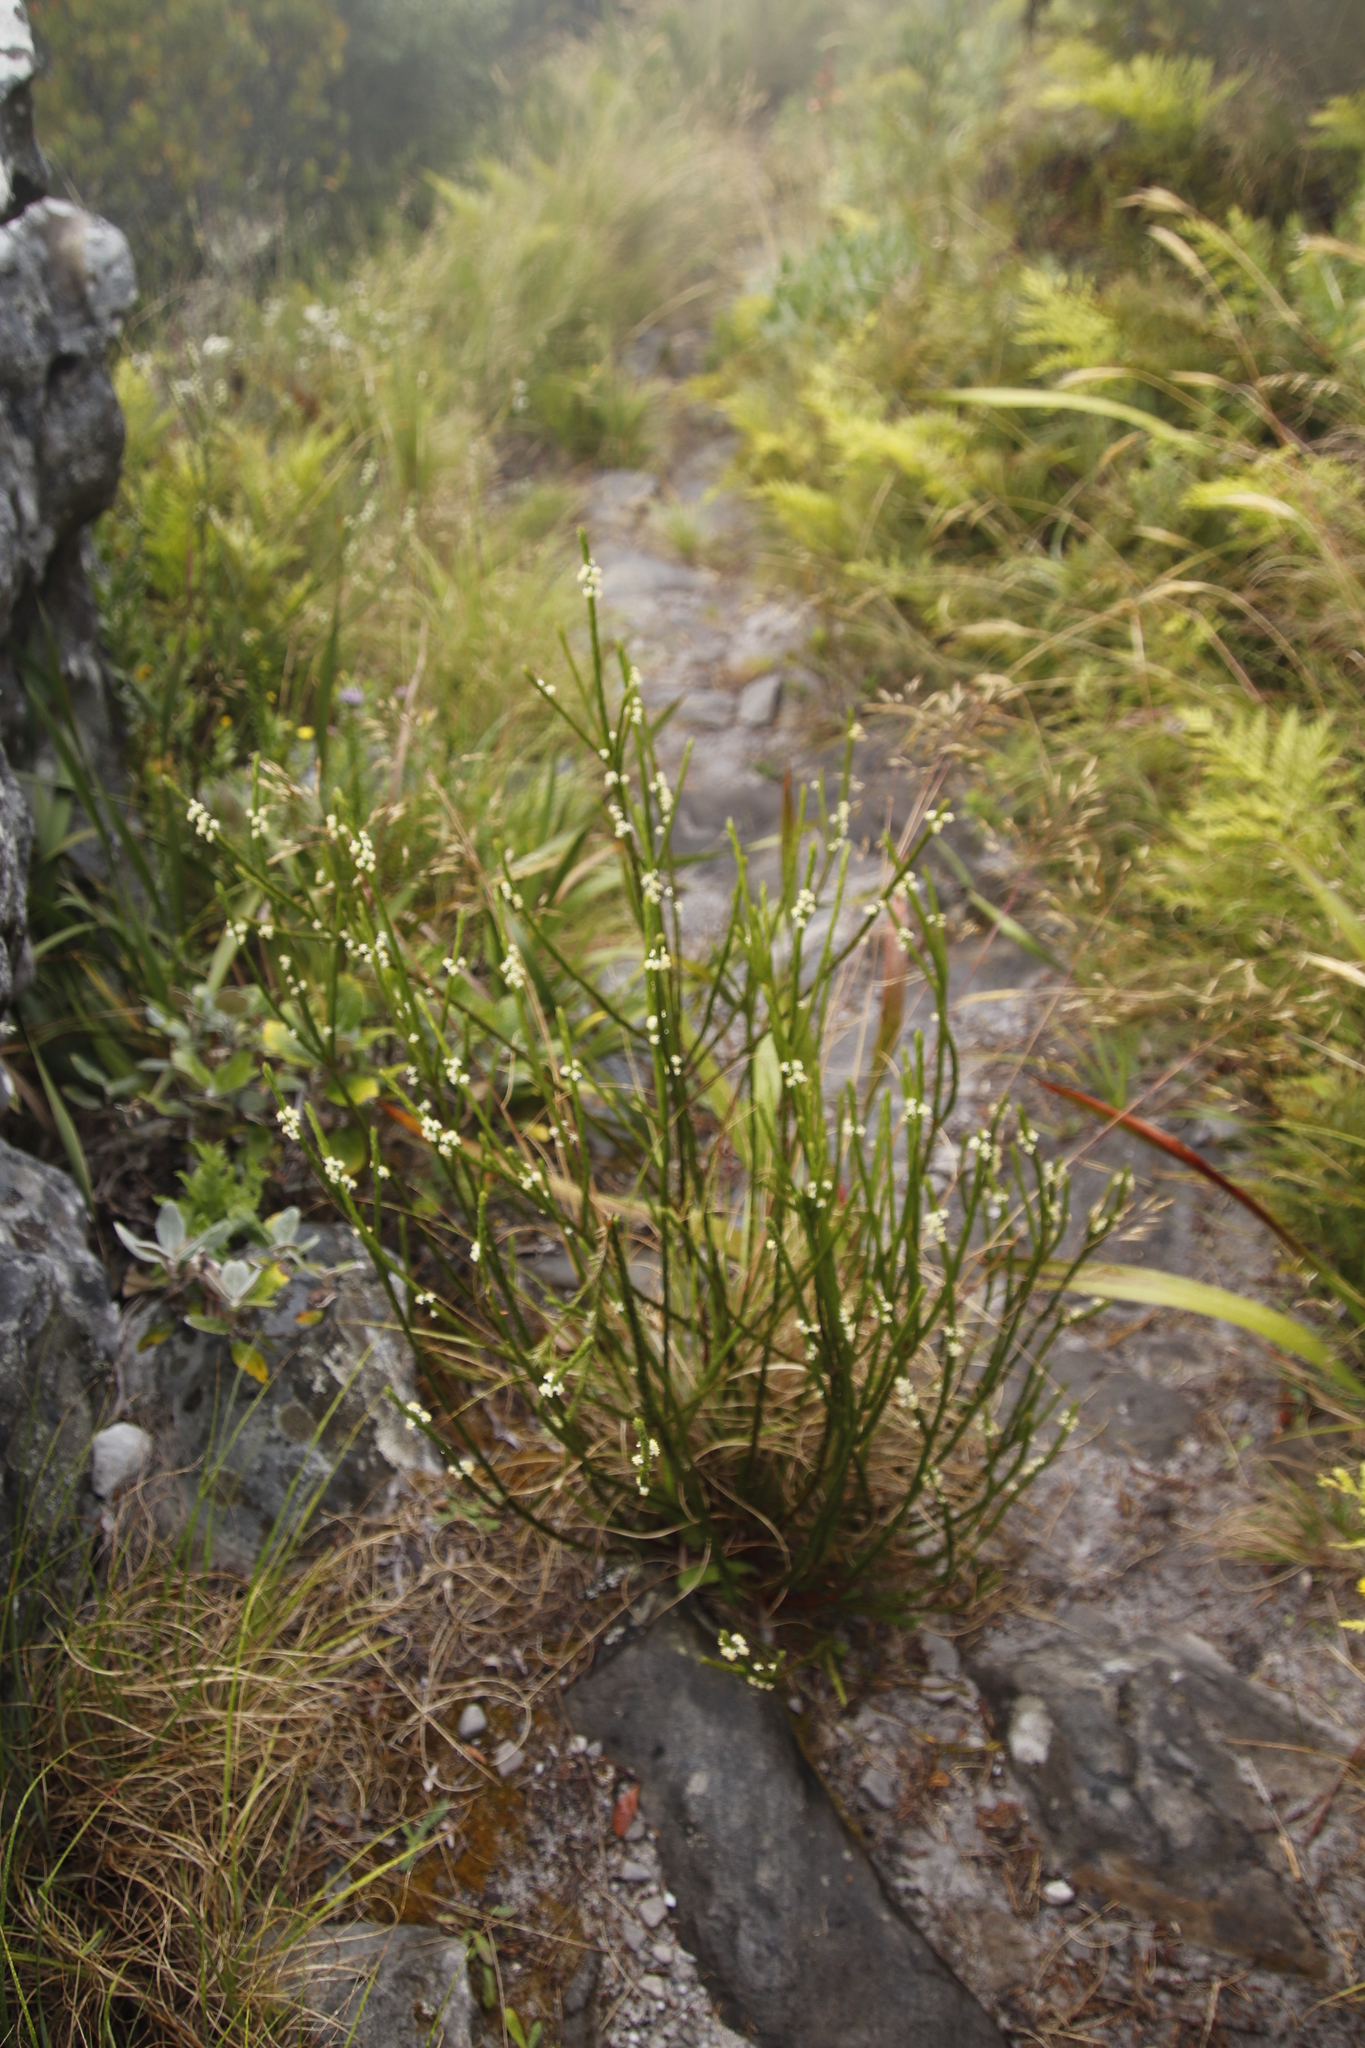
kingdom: Plantae
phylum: Tracheophyta
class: Magnoliopsida
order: Malvales
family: Thymelaeaceae
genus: Struthiola
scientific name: Struthiola ciliata
